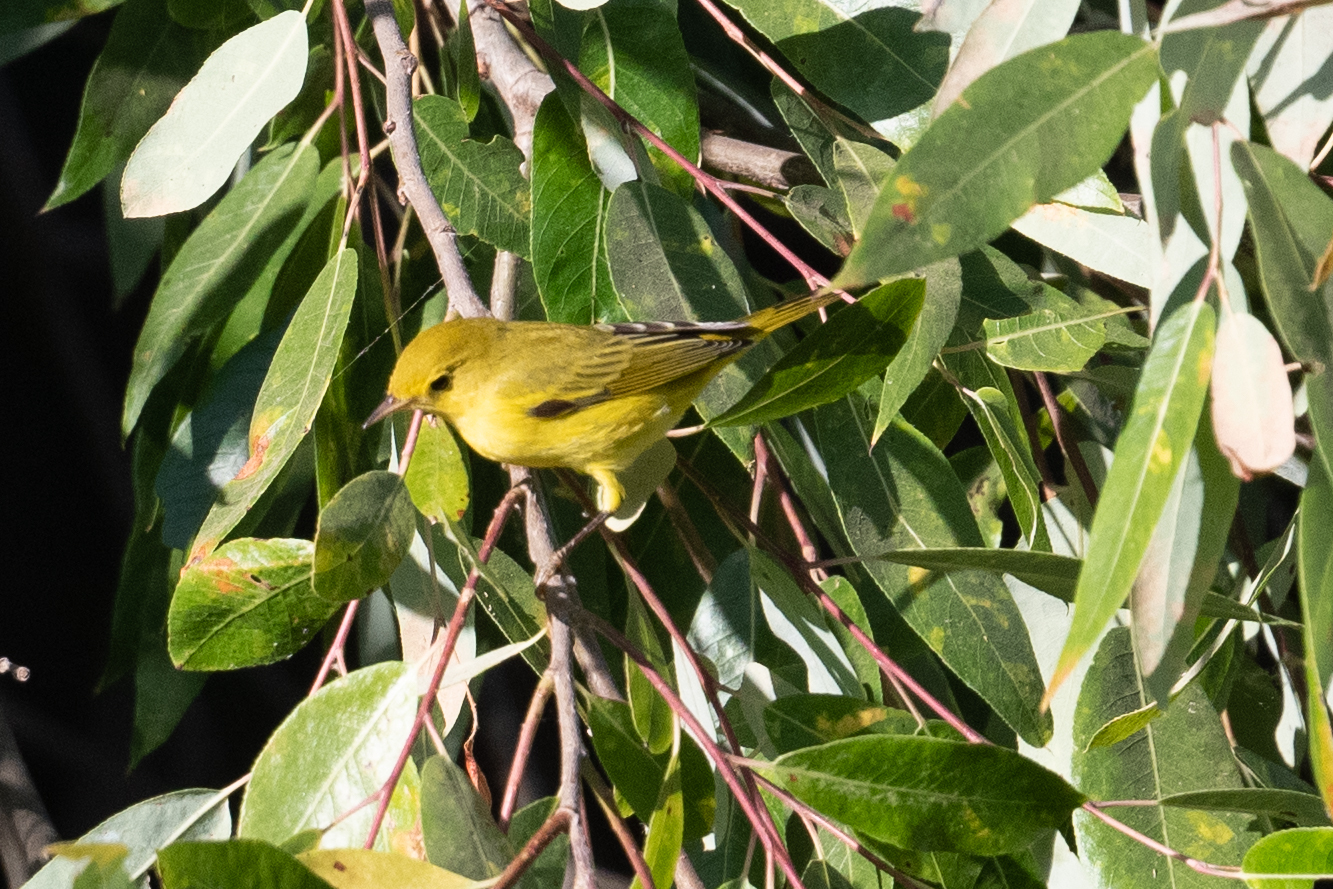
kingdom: Animalia
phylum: Chordata
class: Aves
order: Passeriformes
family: Parulidae
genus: Setophaga
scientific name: Setophaga petechia
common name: Yellow warbler
